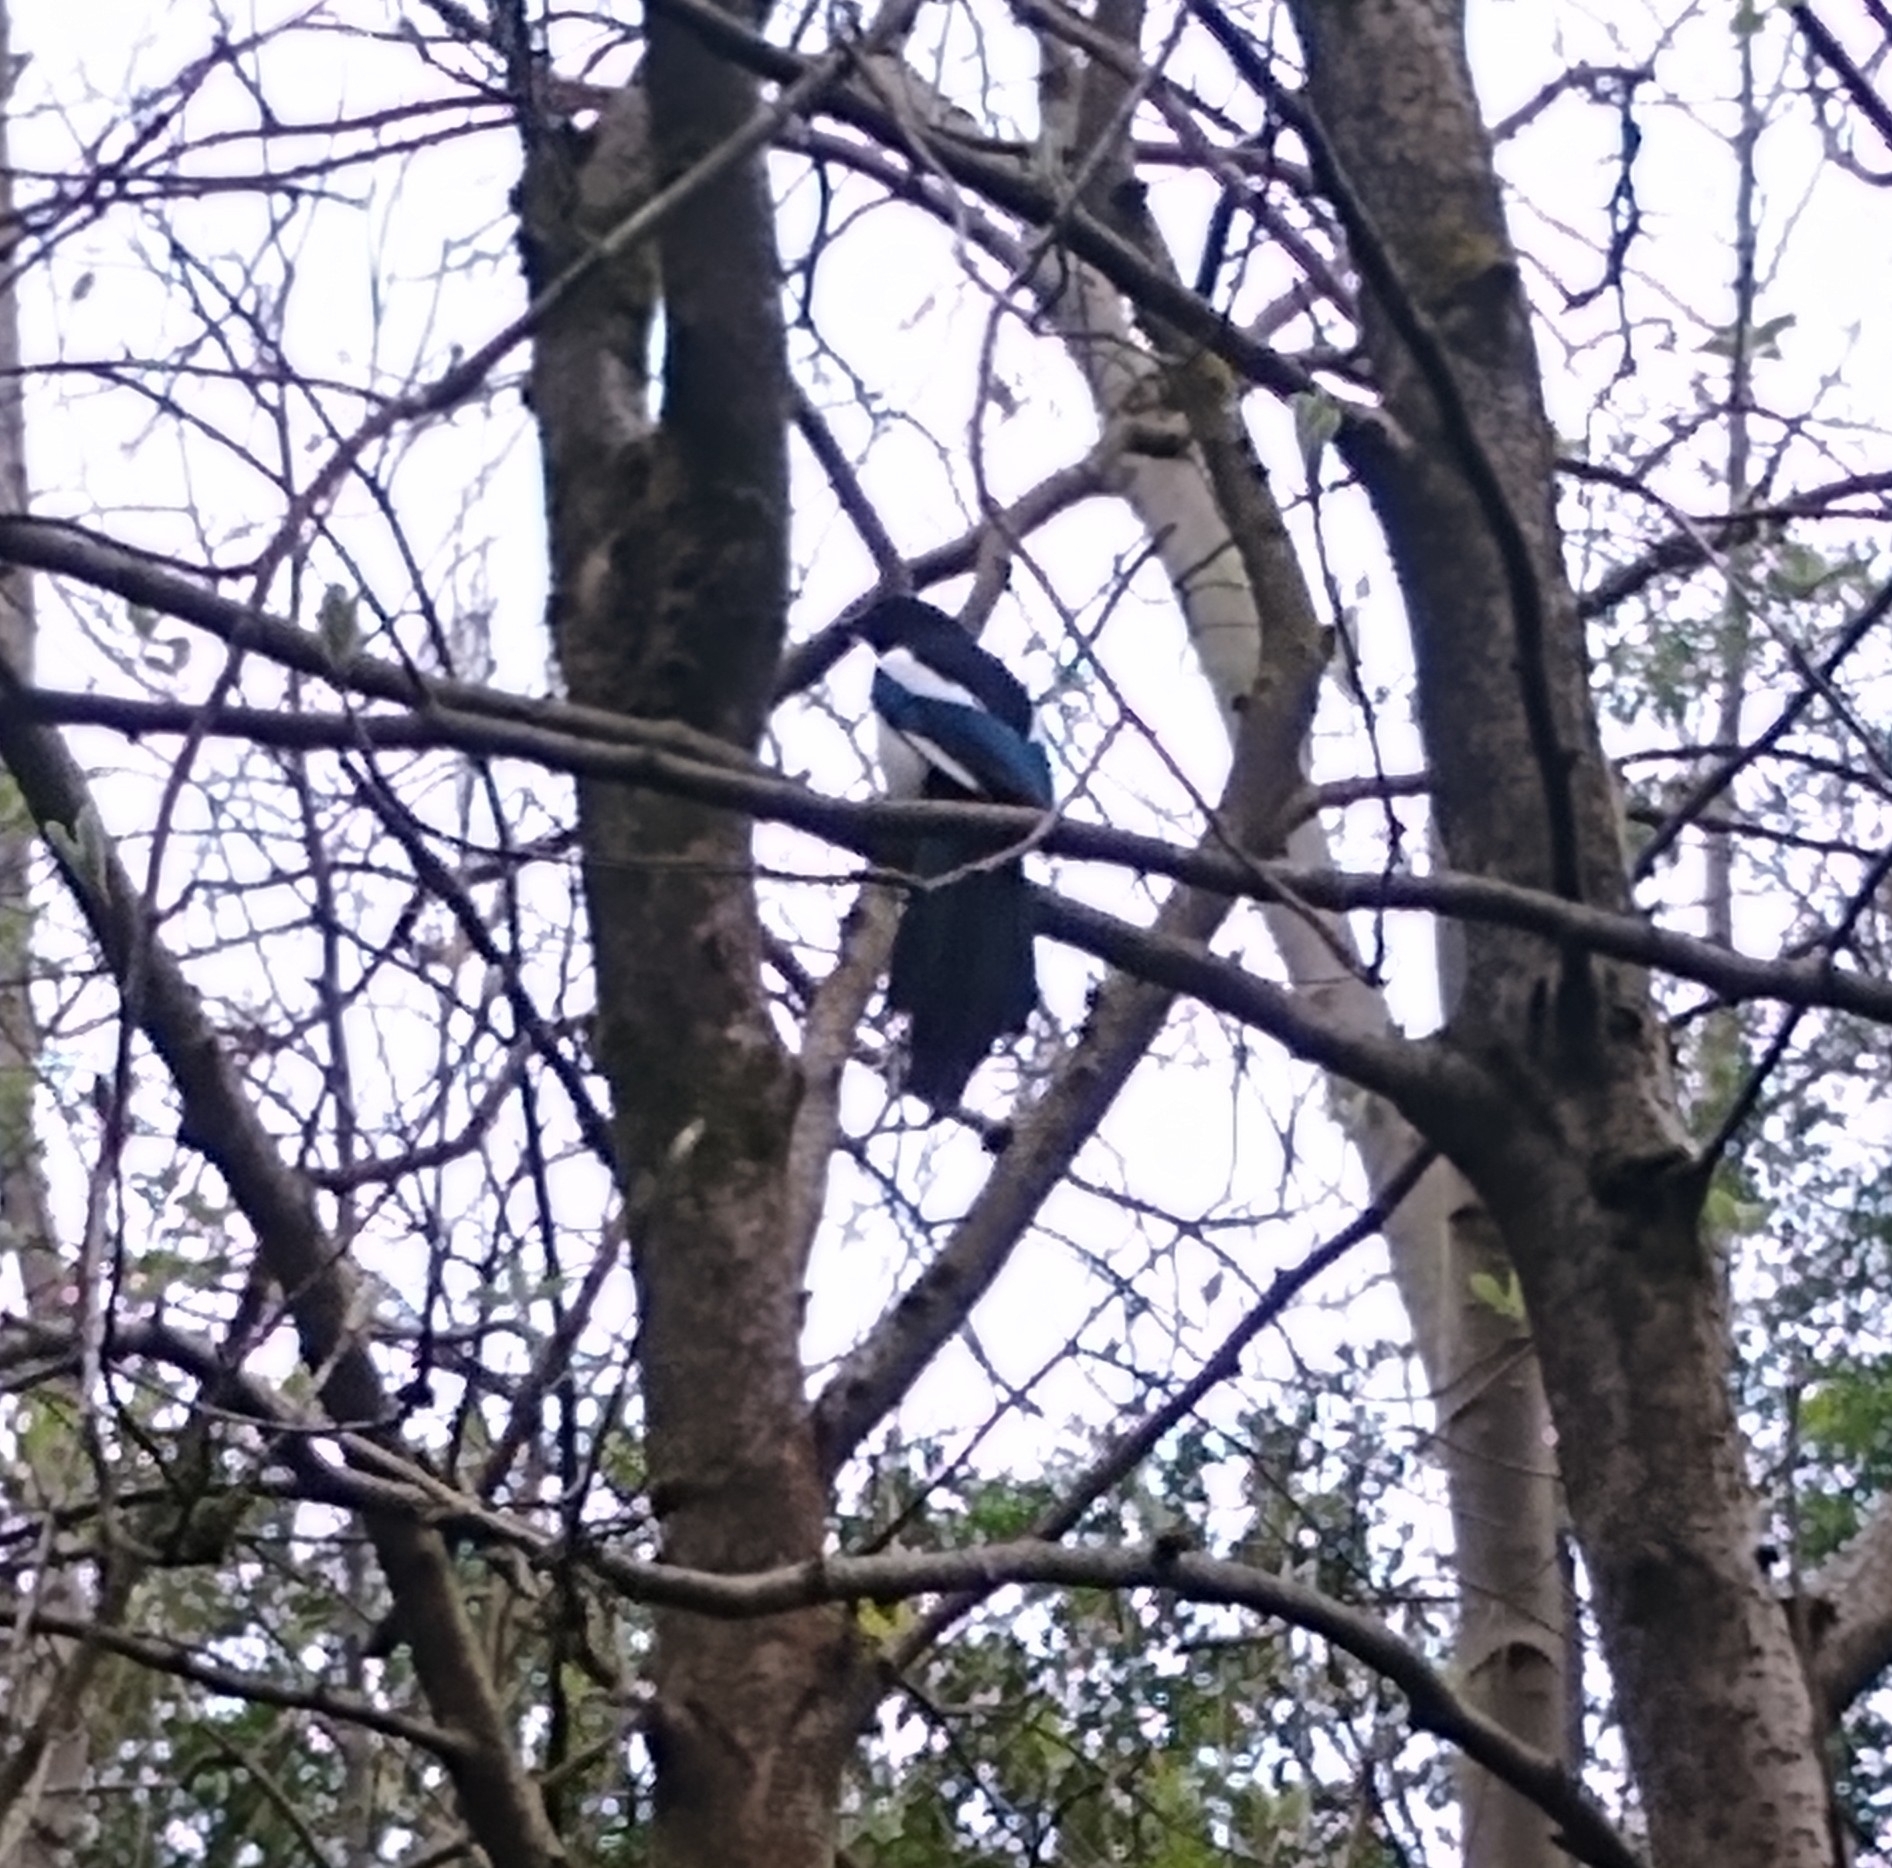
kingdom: Animalia
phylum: Chordata
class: Aves
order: Passeriformes
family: Corvidae
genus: Pica
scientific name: Pica pica
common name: Eurasian magpie
